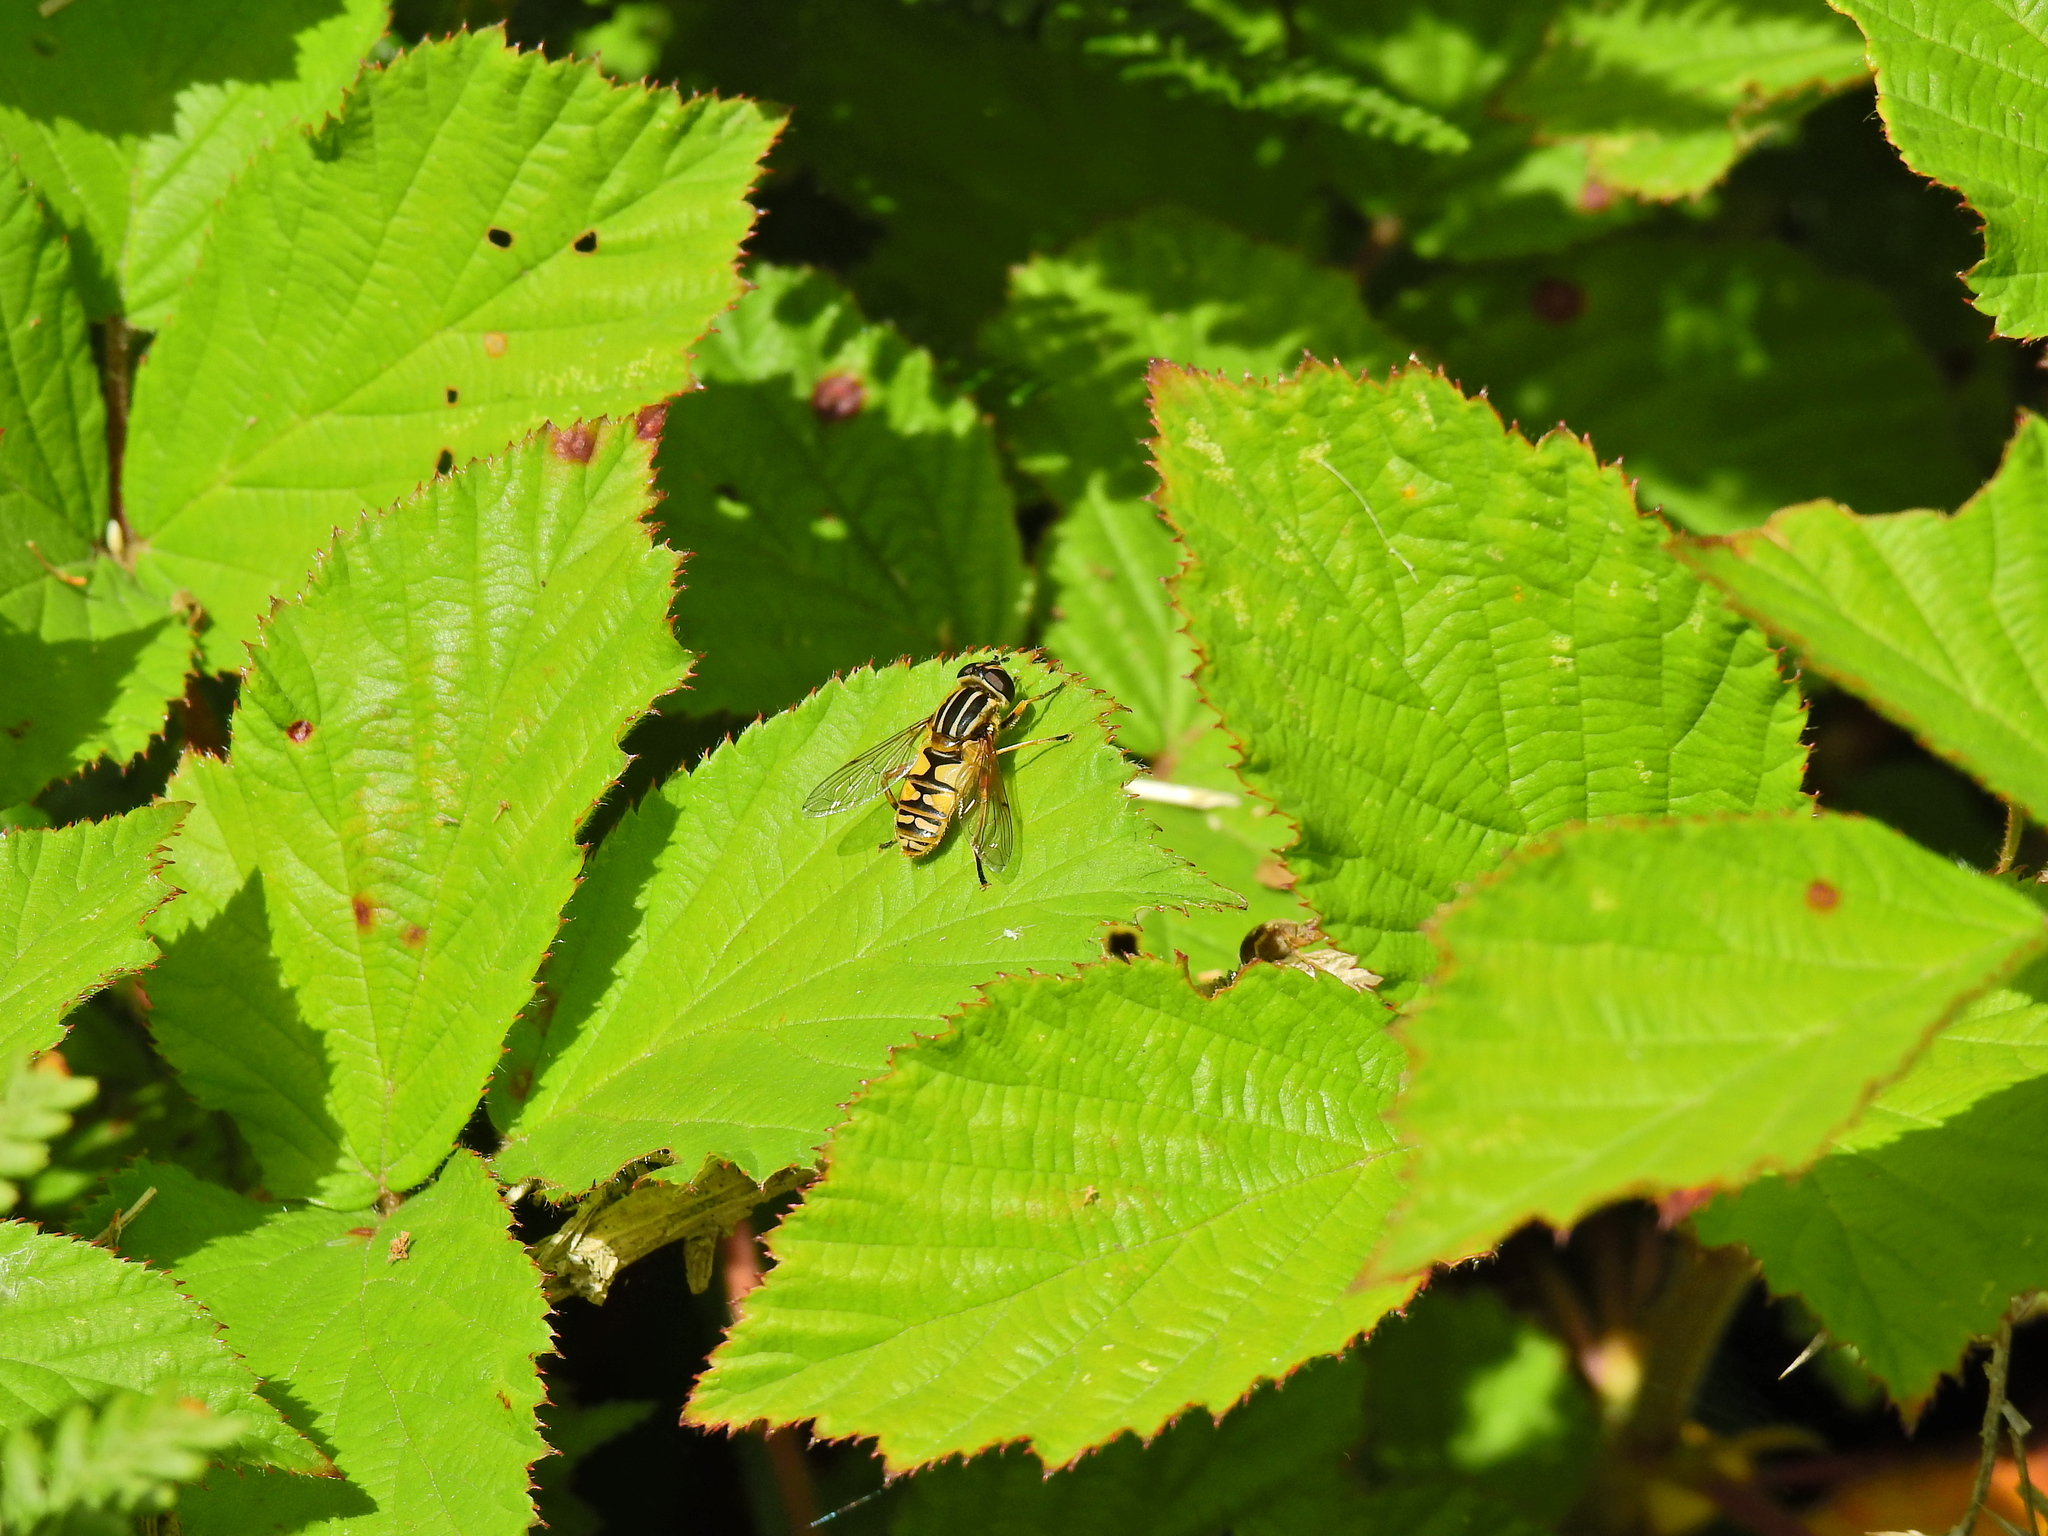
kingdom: Animalia
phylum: Arthropoda
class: Insecta
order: Diptera
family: Syrphidae
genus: Helophilus
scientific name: Helophilus pendulus
